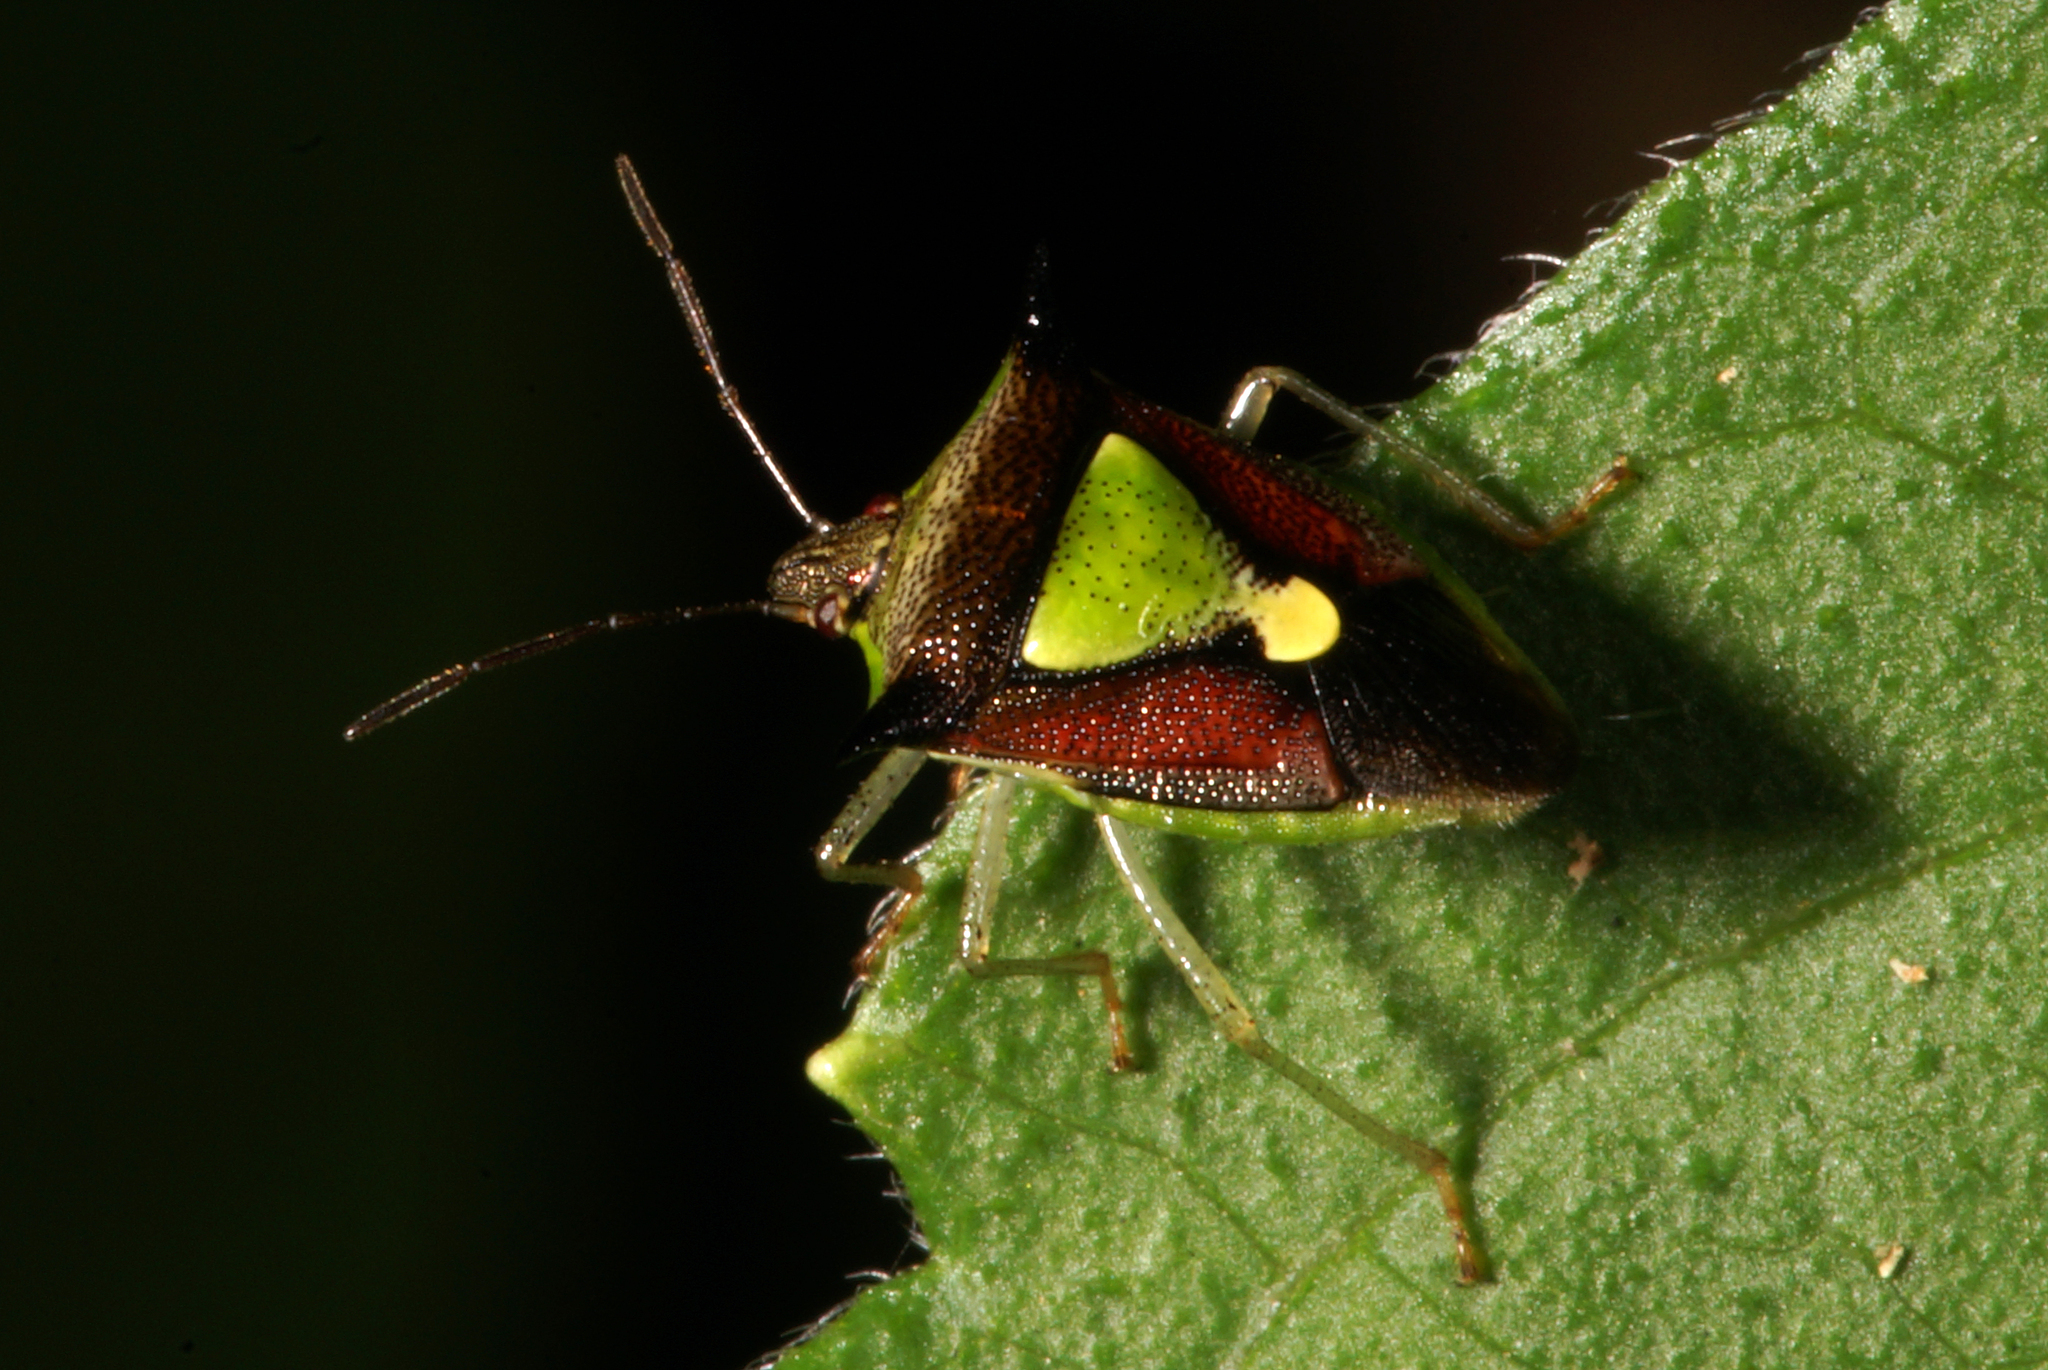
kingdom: Animalia
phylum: Arthropoda
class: Insecta
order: Hemiptera
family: Pentatomidae
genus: Carbula
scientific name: Carbula scutellata
